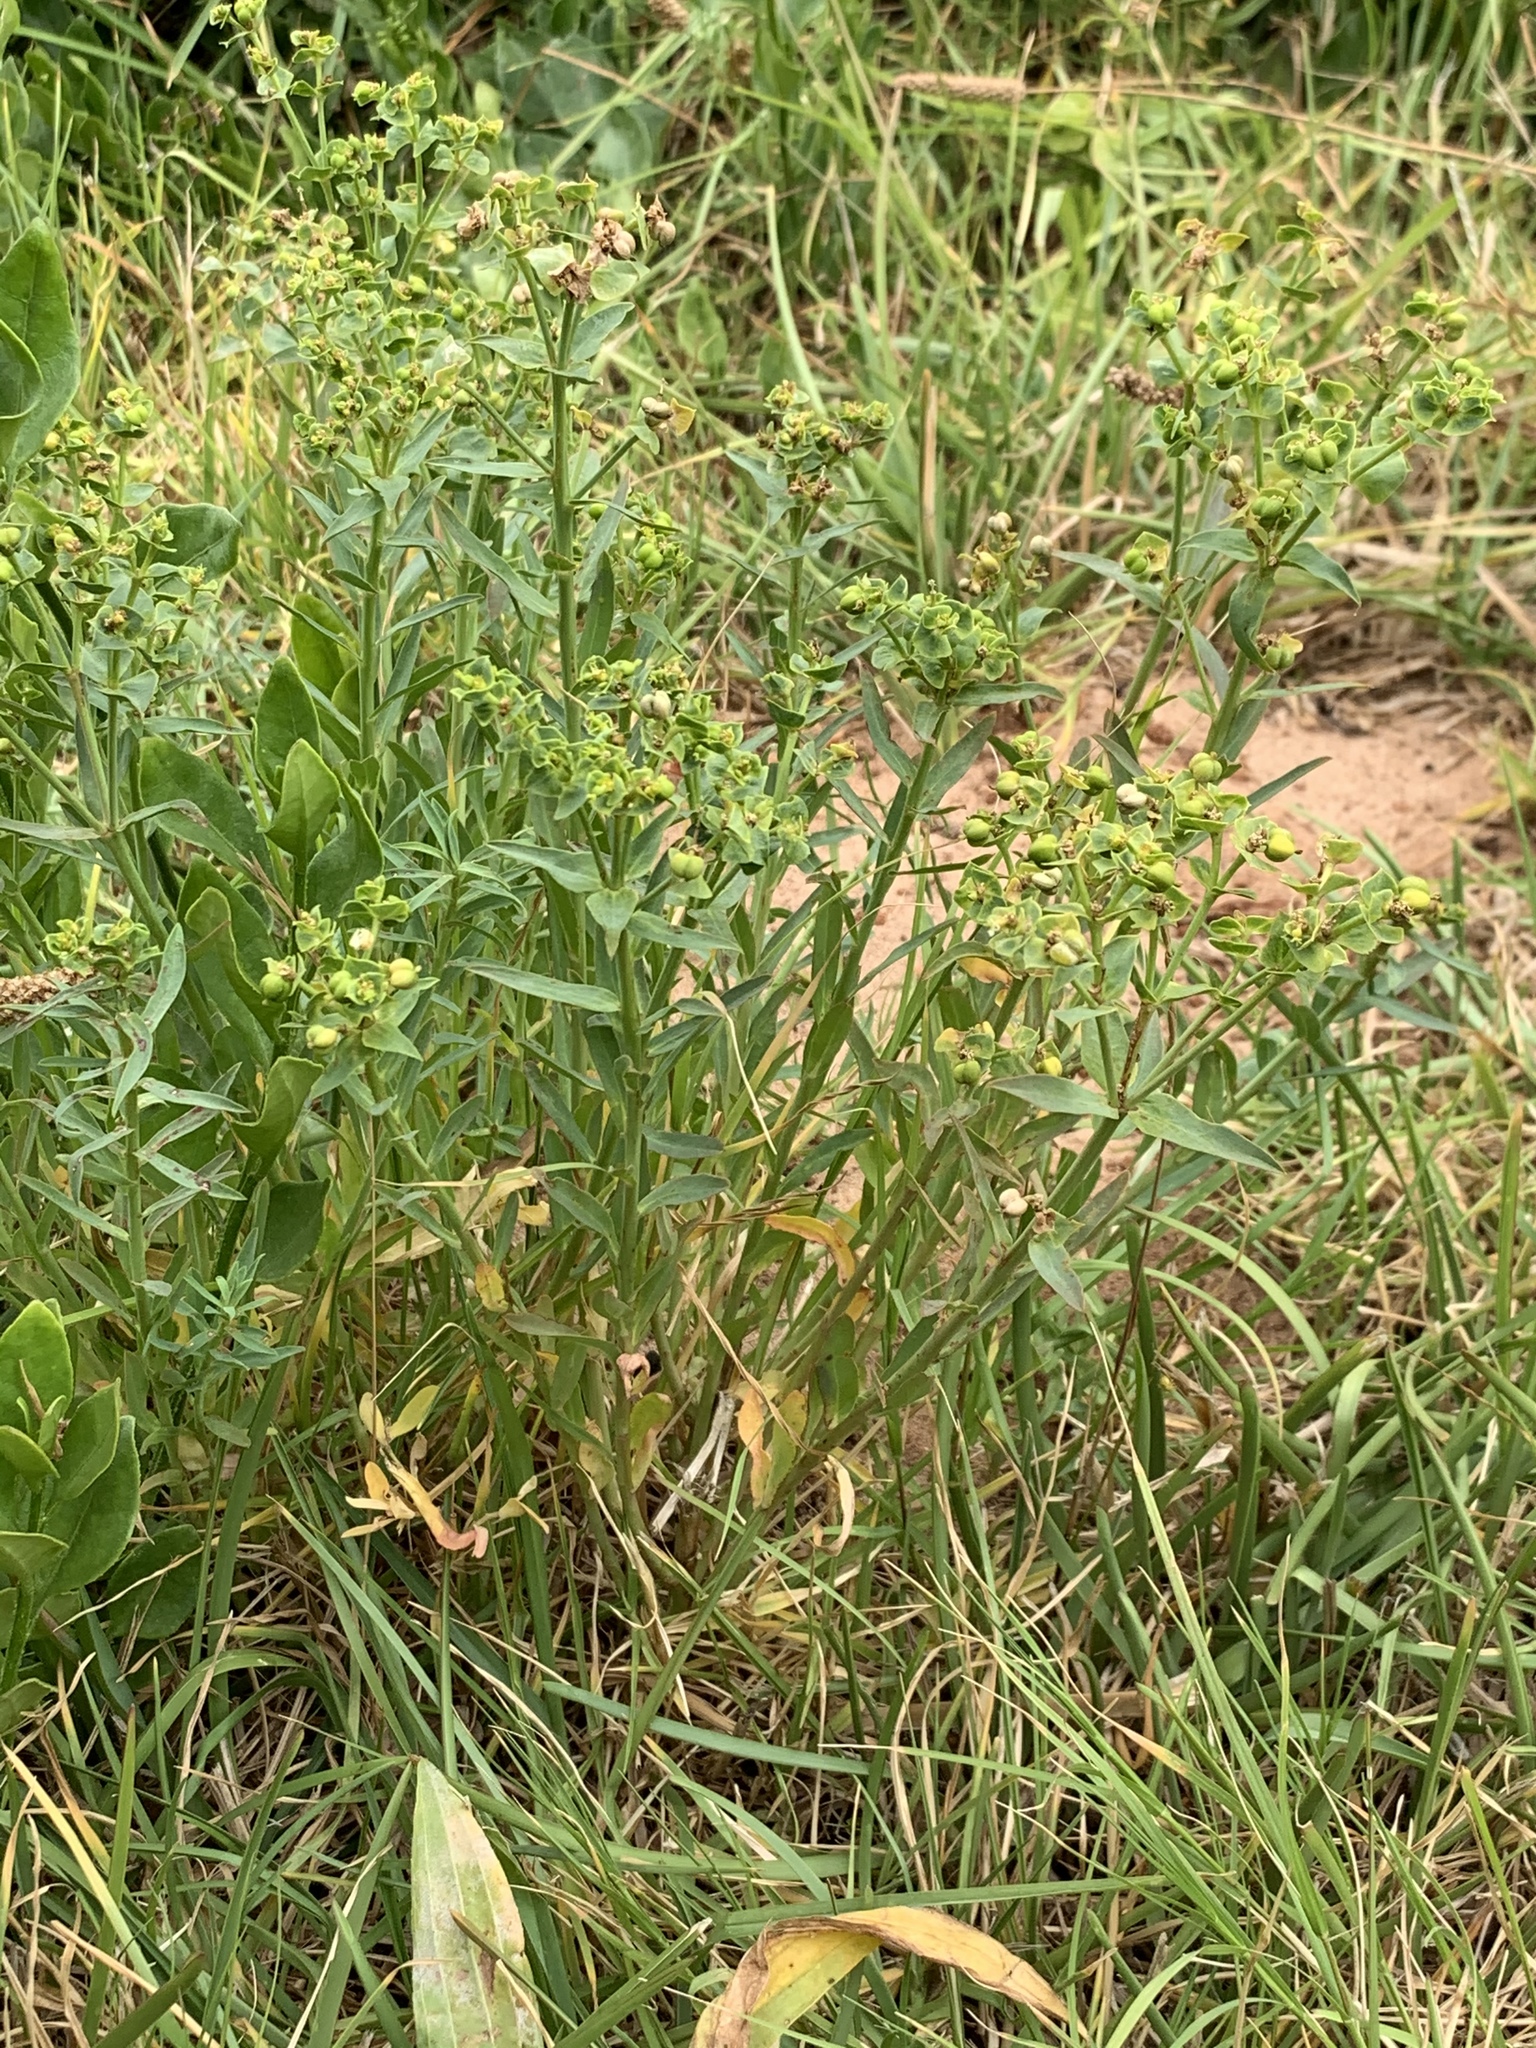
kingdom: Plantae
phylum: Tracheophyta
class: Magnoliopsida
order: Malpighiales
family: Euphorbiaceae
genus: Euphorbia
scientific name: Euphorbia terracina
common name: Geraldton carnation weed
